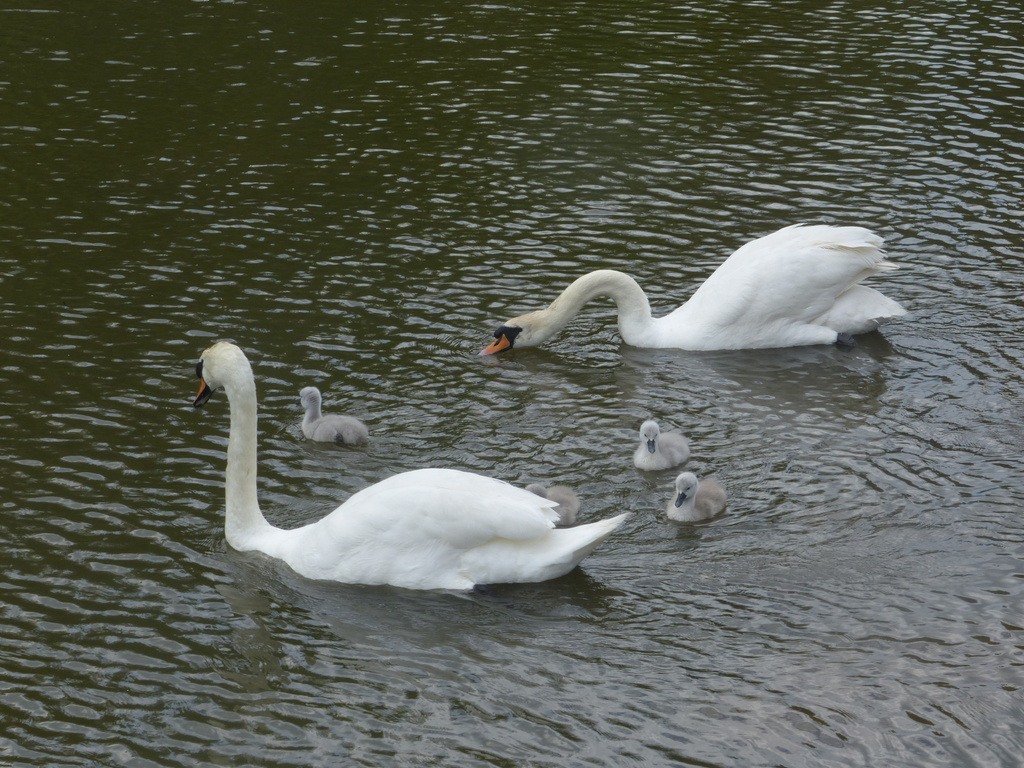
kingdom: Animalia
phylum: Chordata
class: Aves
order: Anseriformes
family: Anatidae
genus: Cygnus
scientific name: Cygnus olor
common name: Mute swan
